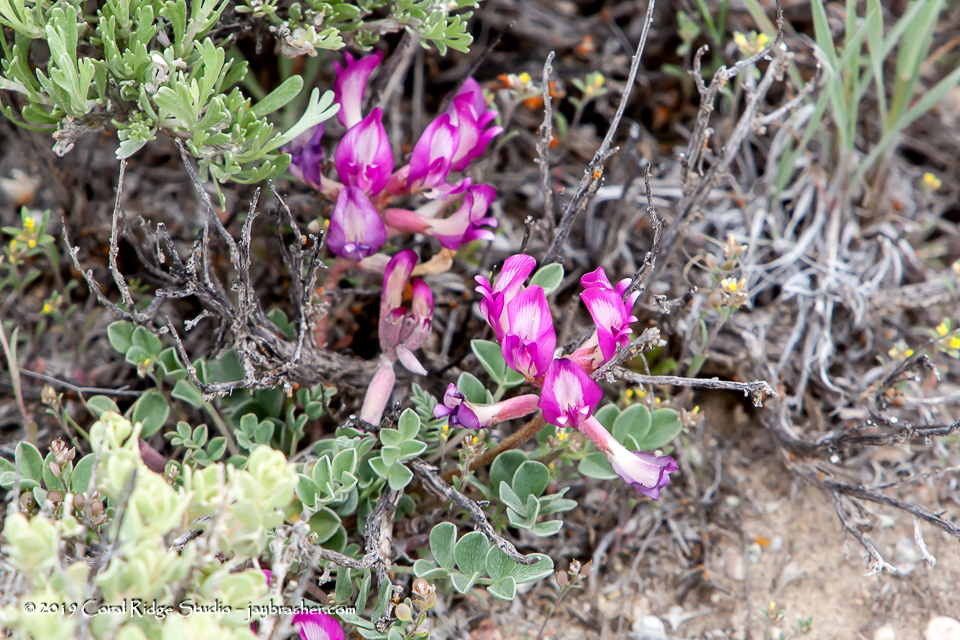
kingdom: Plantae
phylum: Tracheophyta
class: Magnoliopsida
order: Fabales
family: Fabaceae
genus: Astragalus
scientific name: Astragalus chamaeleuce
